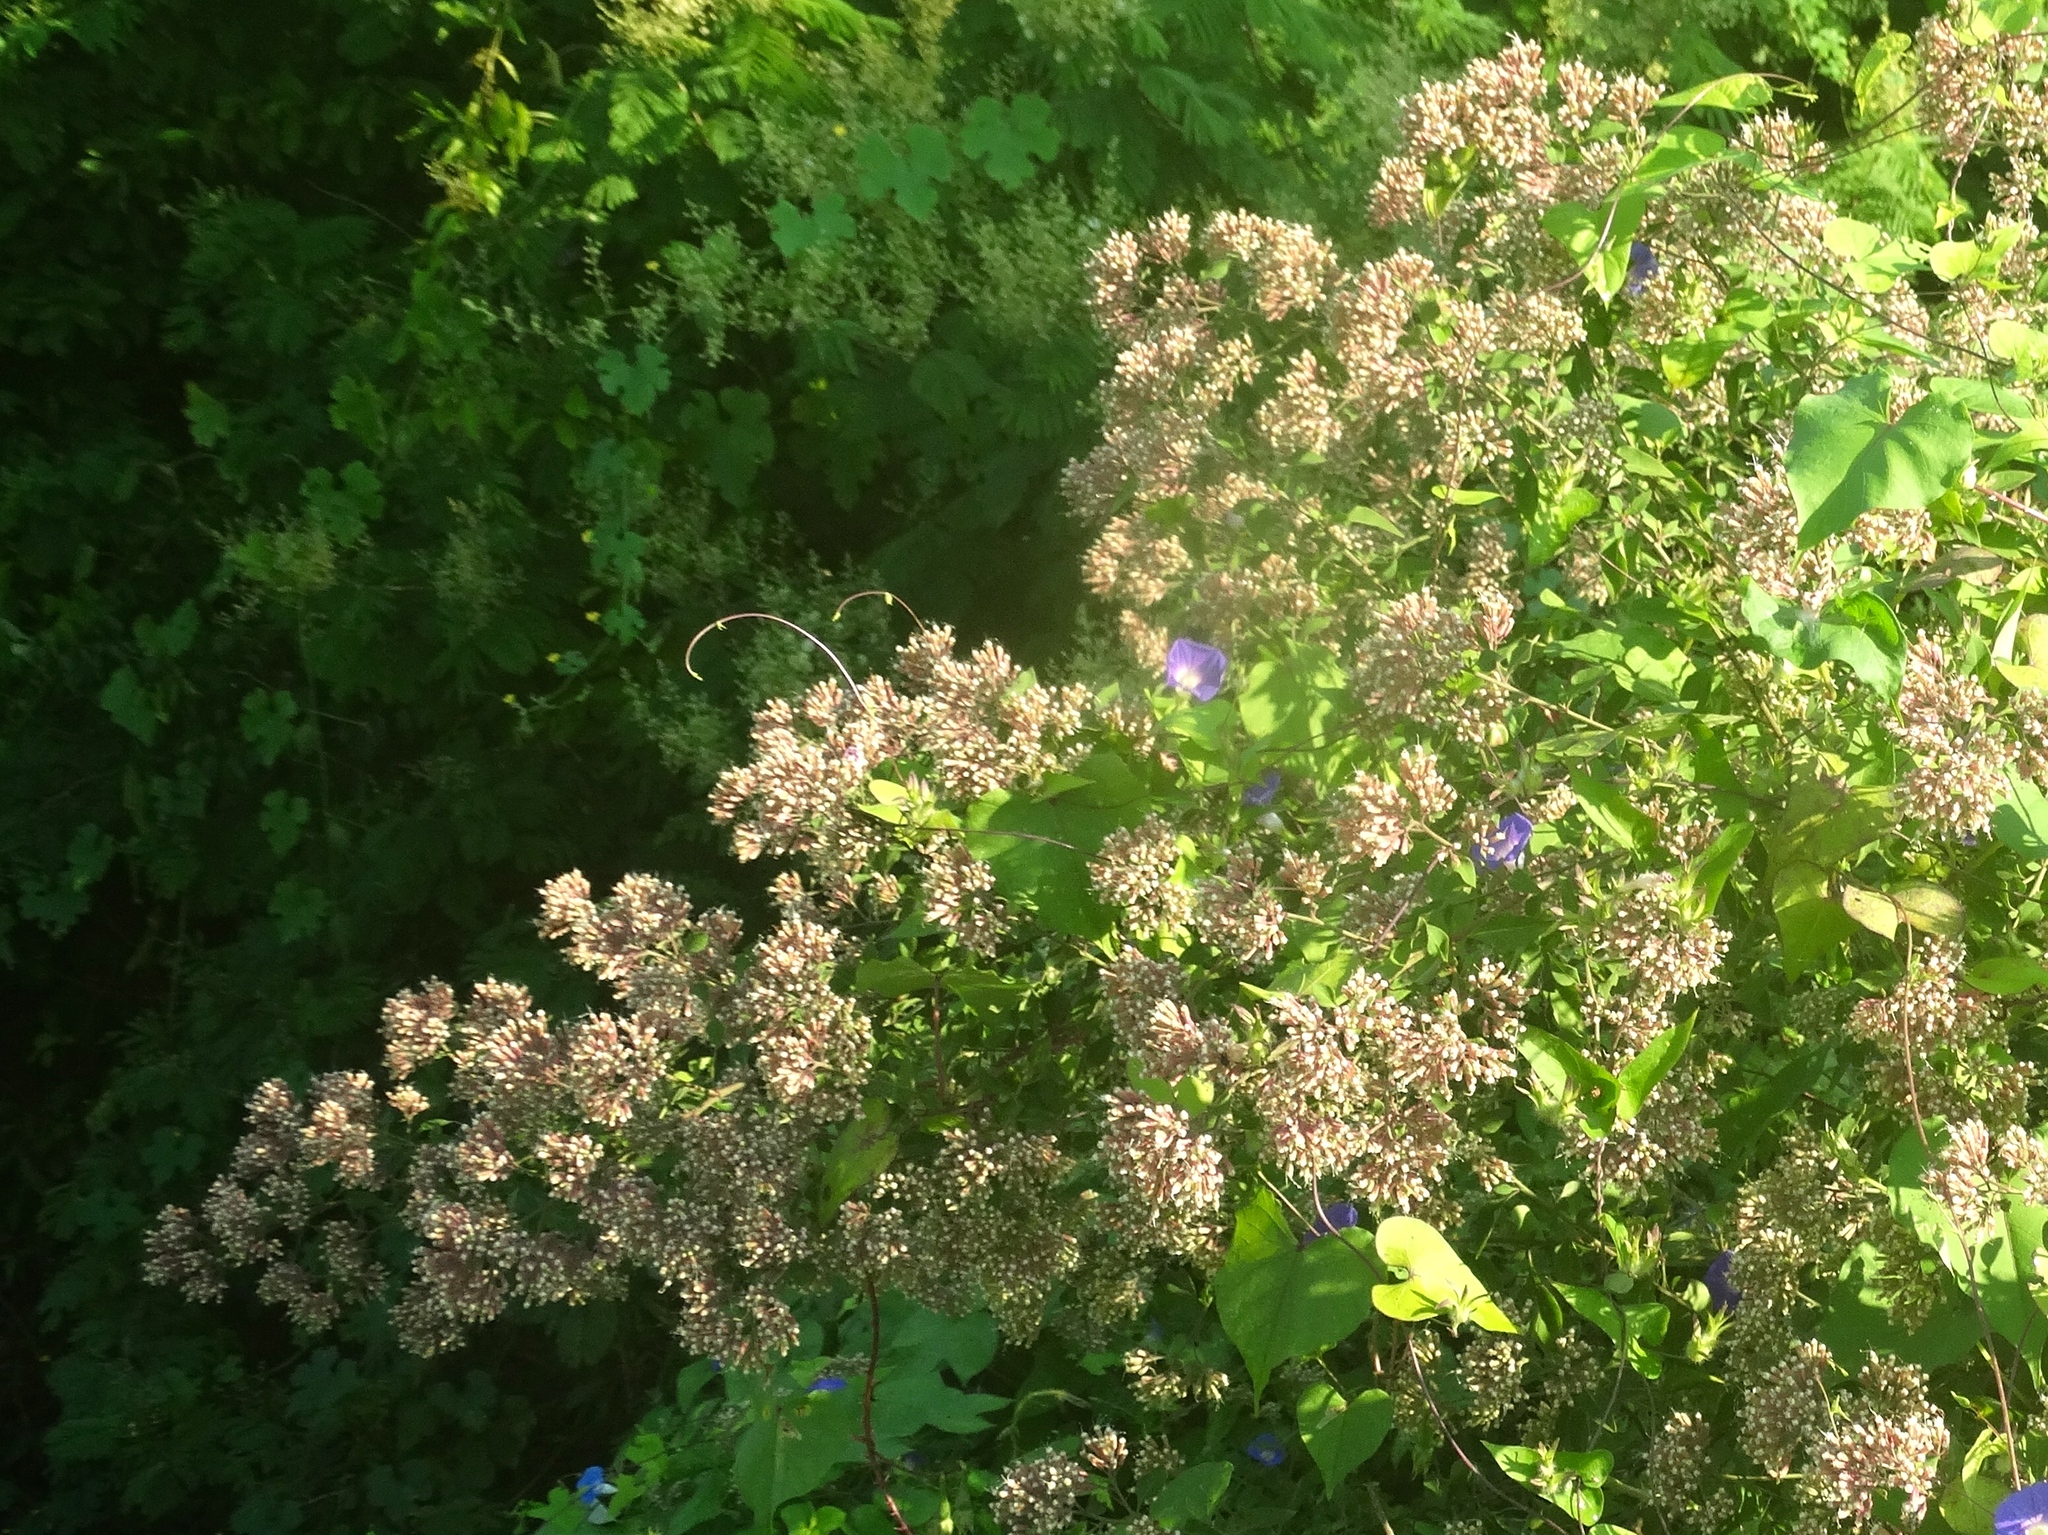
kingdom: Plantae
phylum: Tracheophyta
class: Magnoliopsida
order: Caryophyllales
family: Nyctaginaceae
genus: Salpianthus
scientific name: Salpianthus macrodontus
